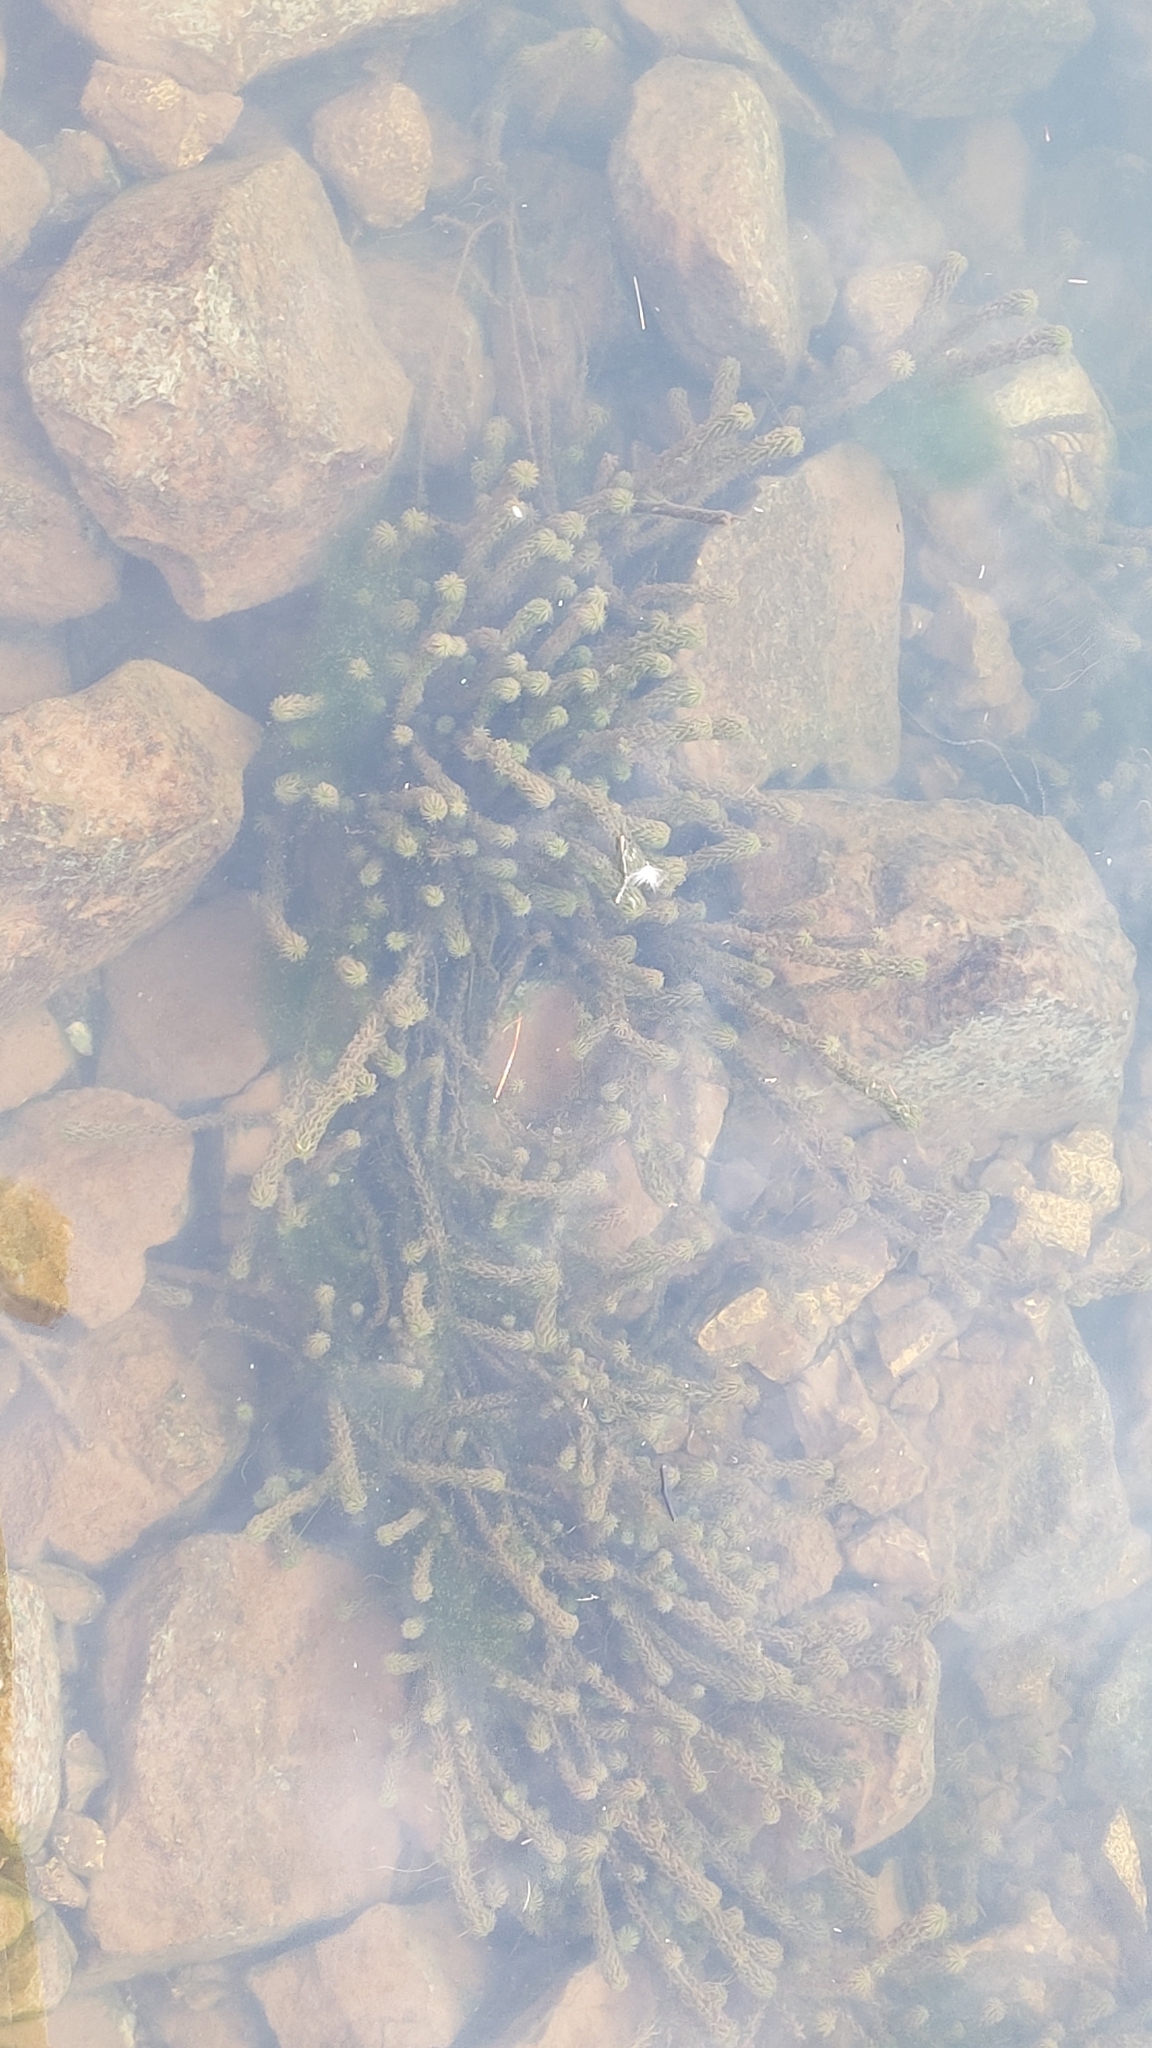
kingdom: Plantae
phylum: Tracheophyta
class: Liliopsida
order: Alismatales
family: Hydrocharitaceae
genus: Lagarosiphon
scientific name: Lagarosiphon major
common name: Curly waterweed
